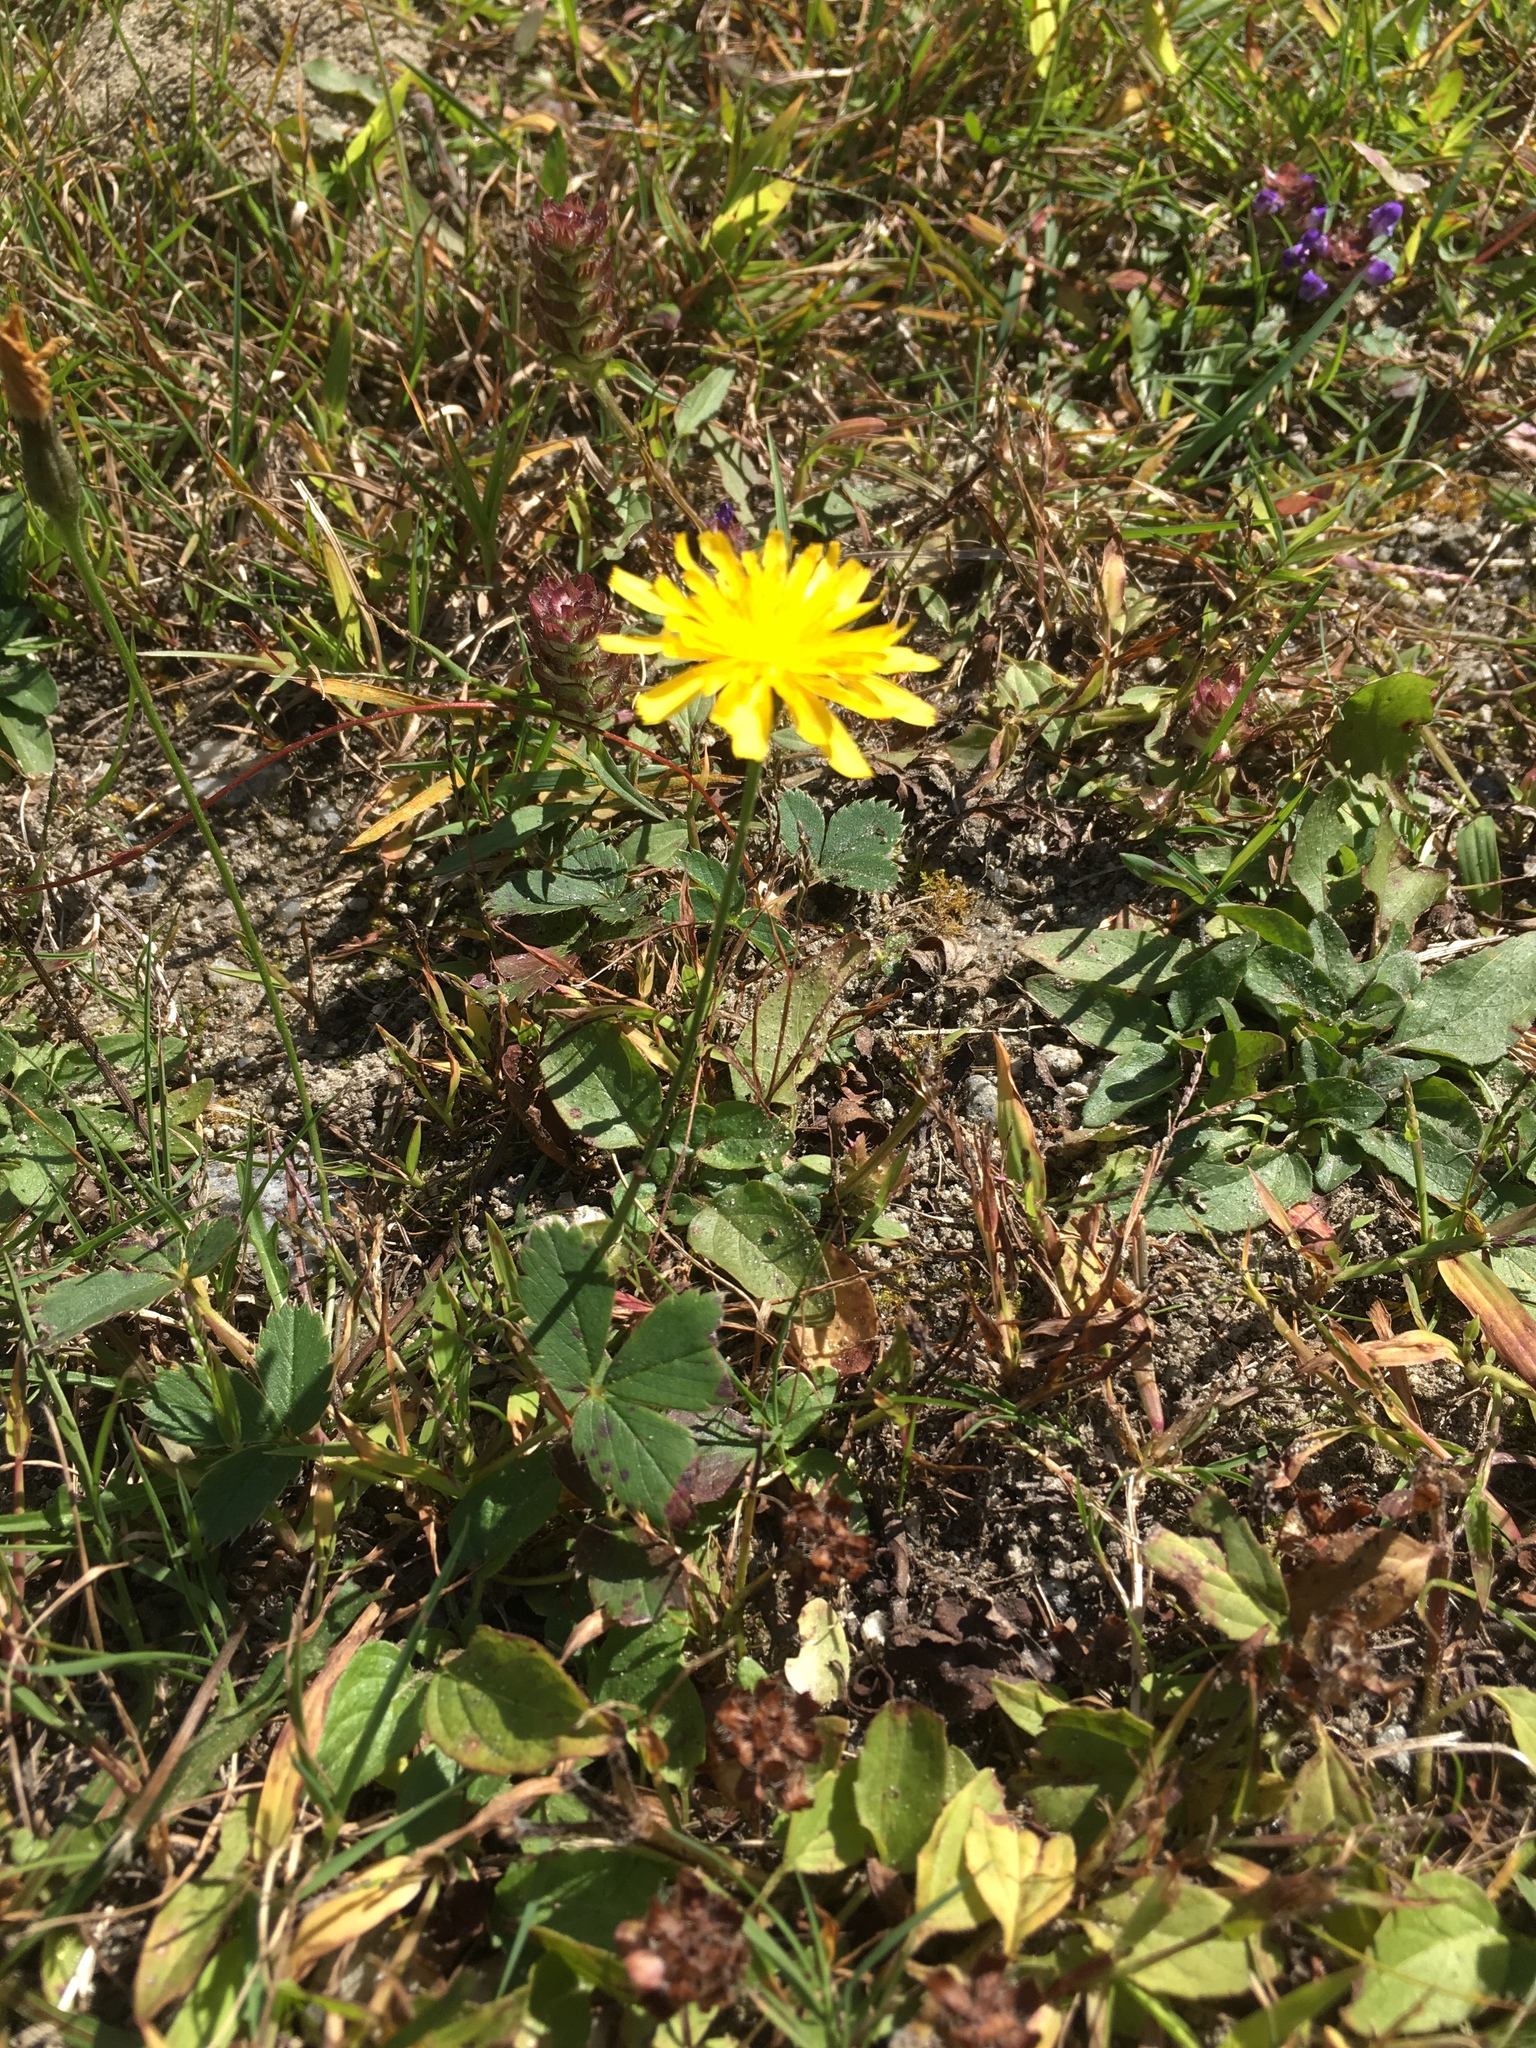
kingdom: Plantae
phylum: Tracheophyta
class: Magnoliopsida
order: Asterales
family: Asteraceae
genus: Scorzoneroides
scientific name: Scorzoneroides autumnalis
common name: Autumn hawkbit
